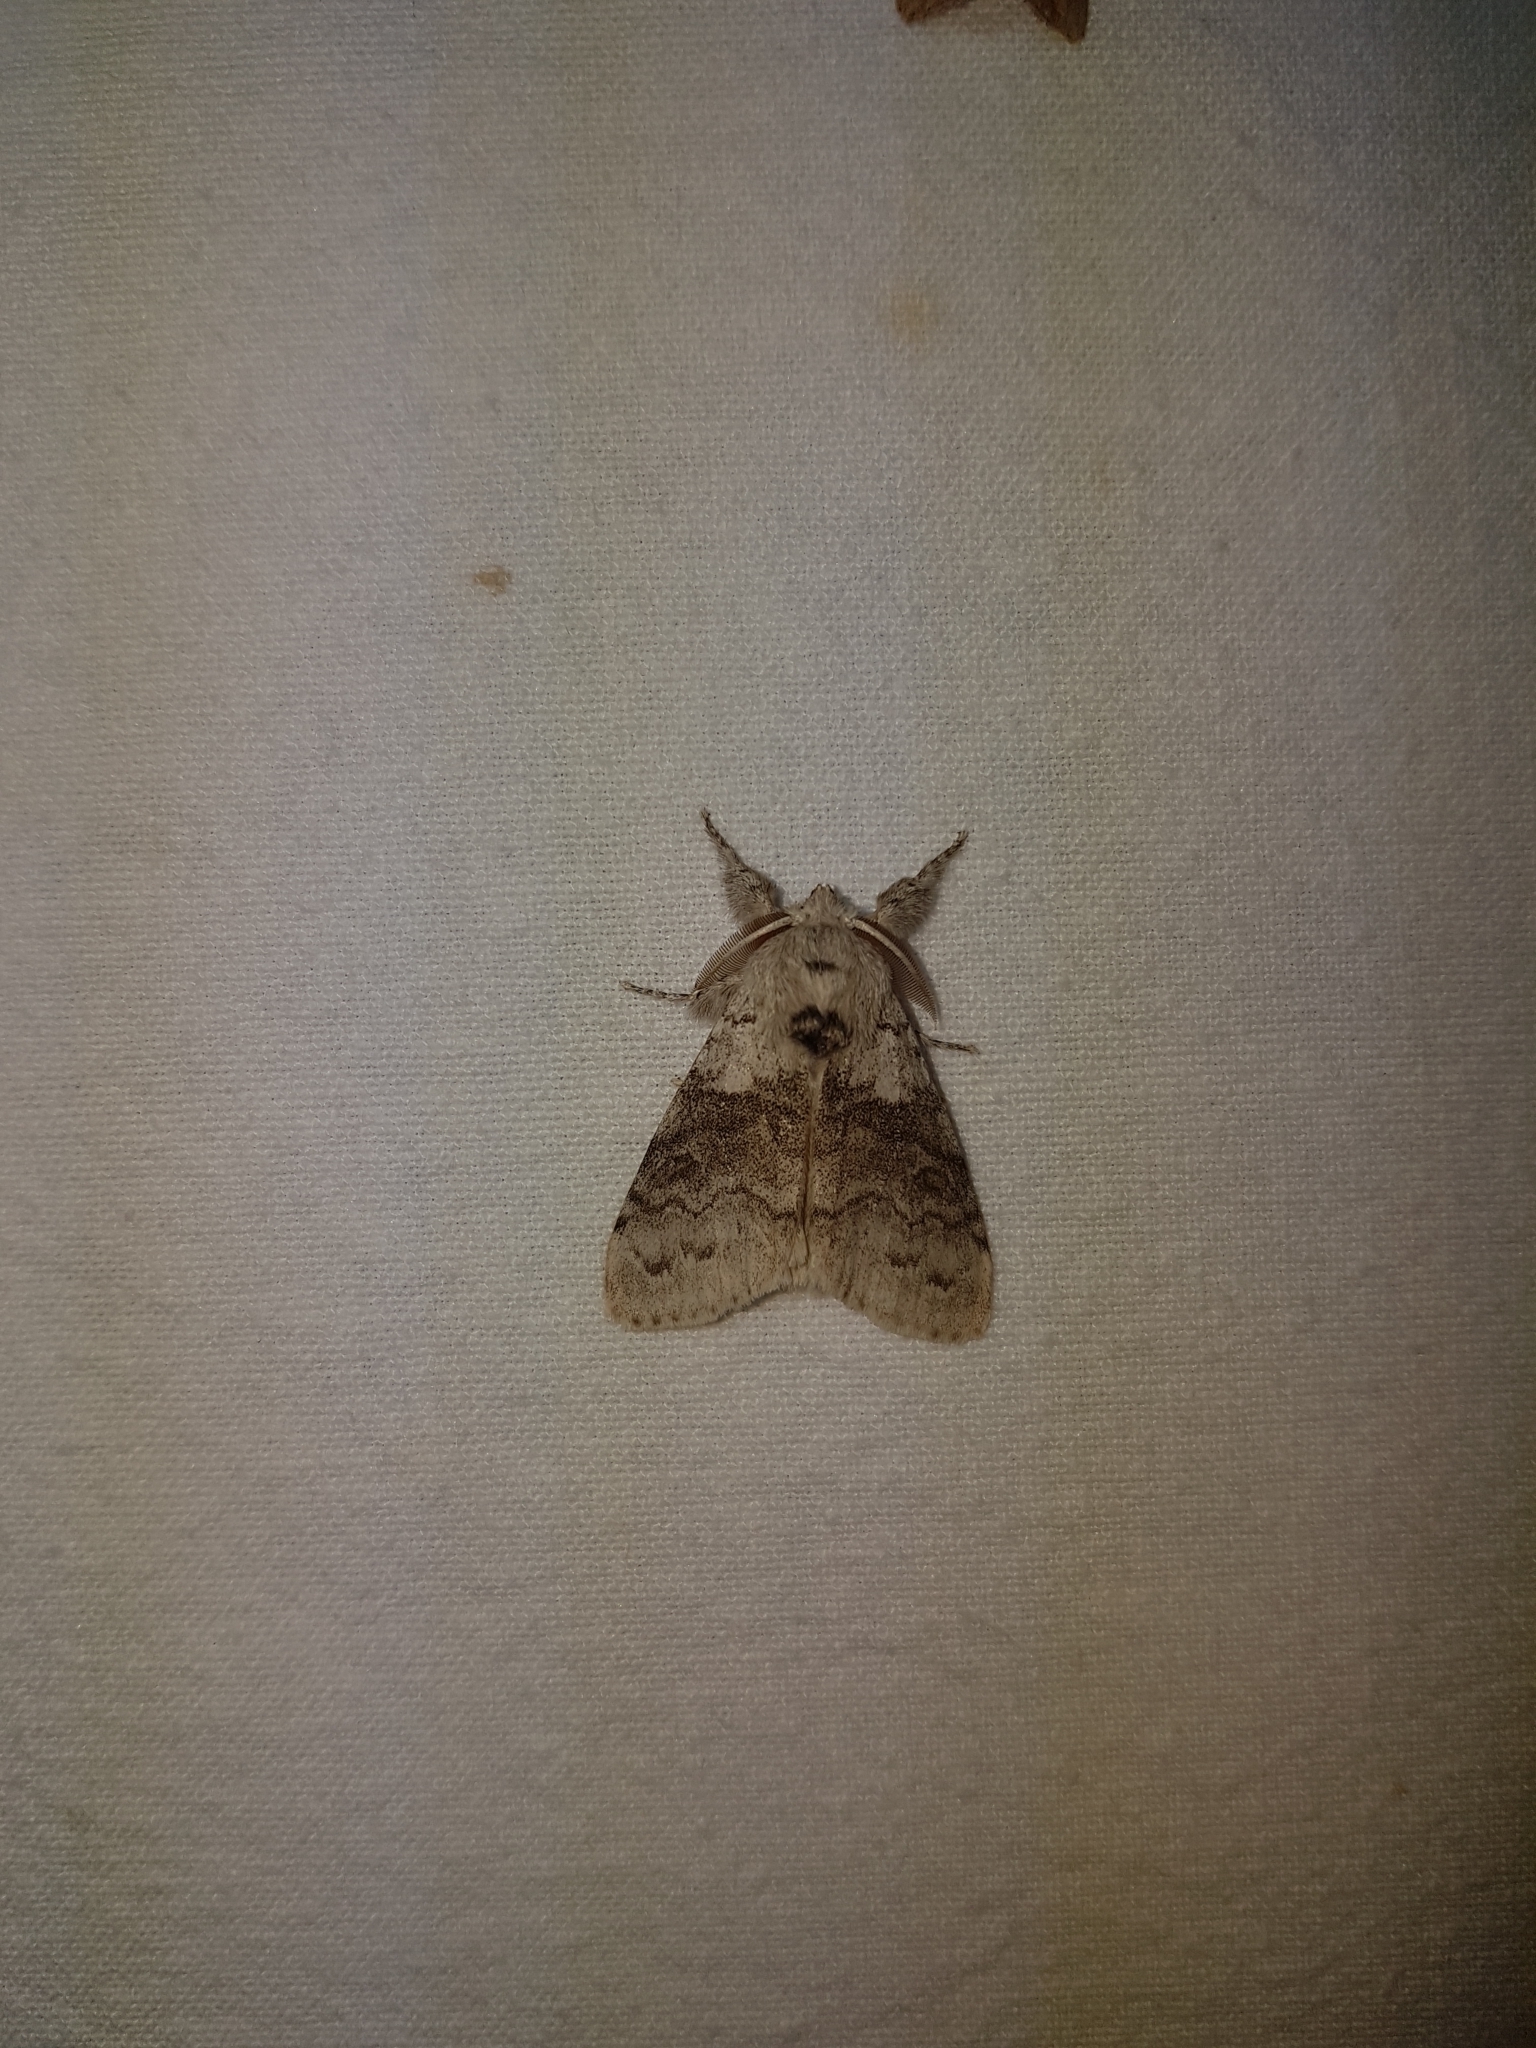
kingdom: Animalia
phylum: Arthropoda
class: Insecta
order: Lepidoptera
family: Erebidae
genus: Calliteara
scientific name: Calliteara pudibunda
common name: Pale tussock
